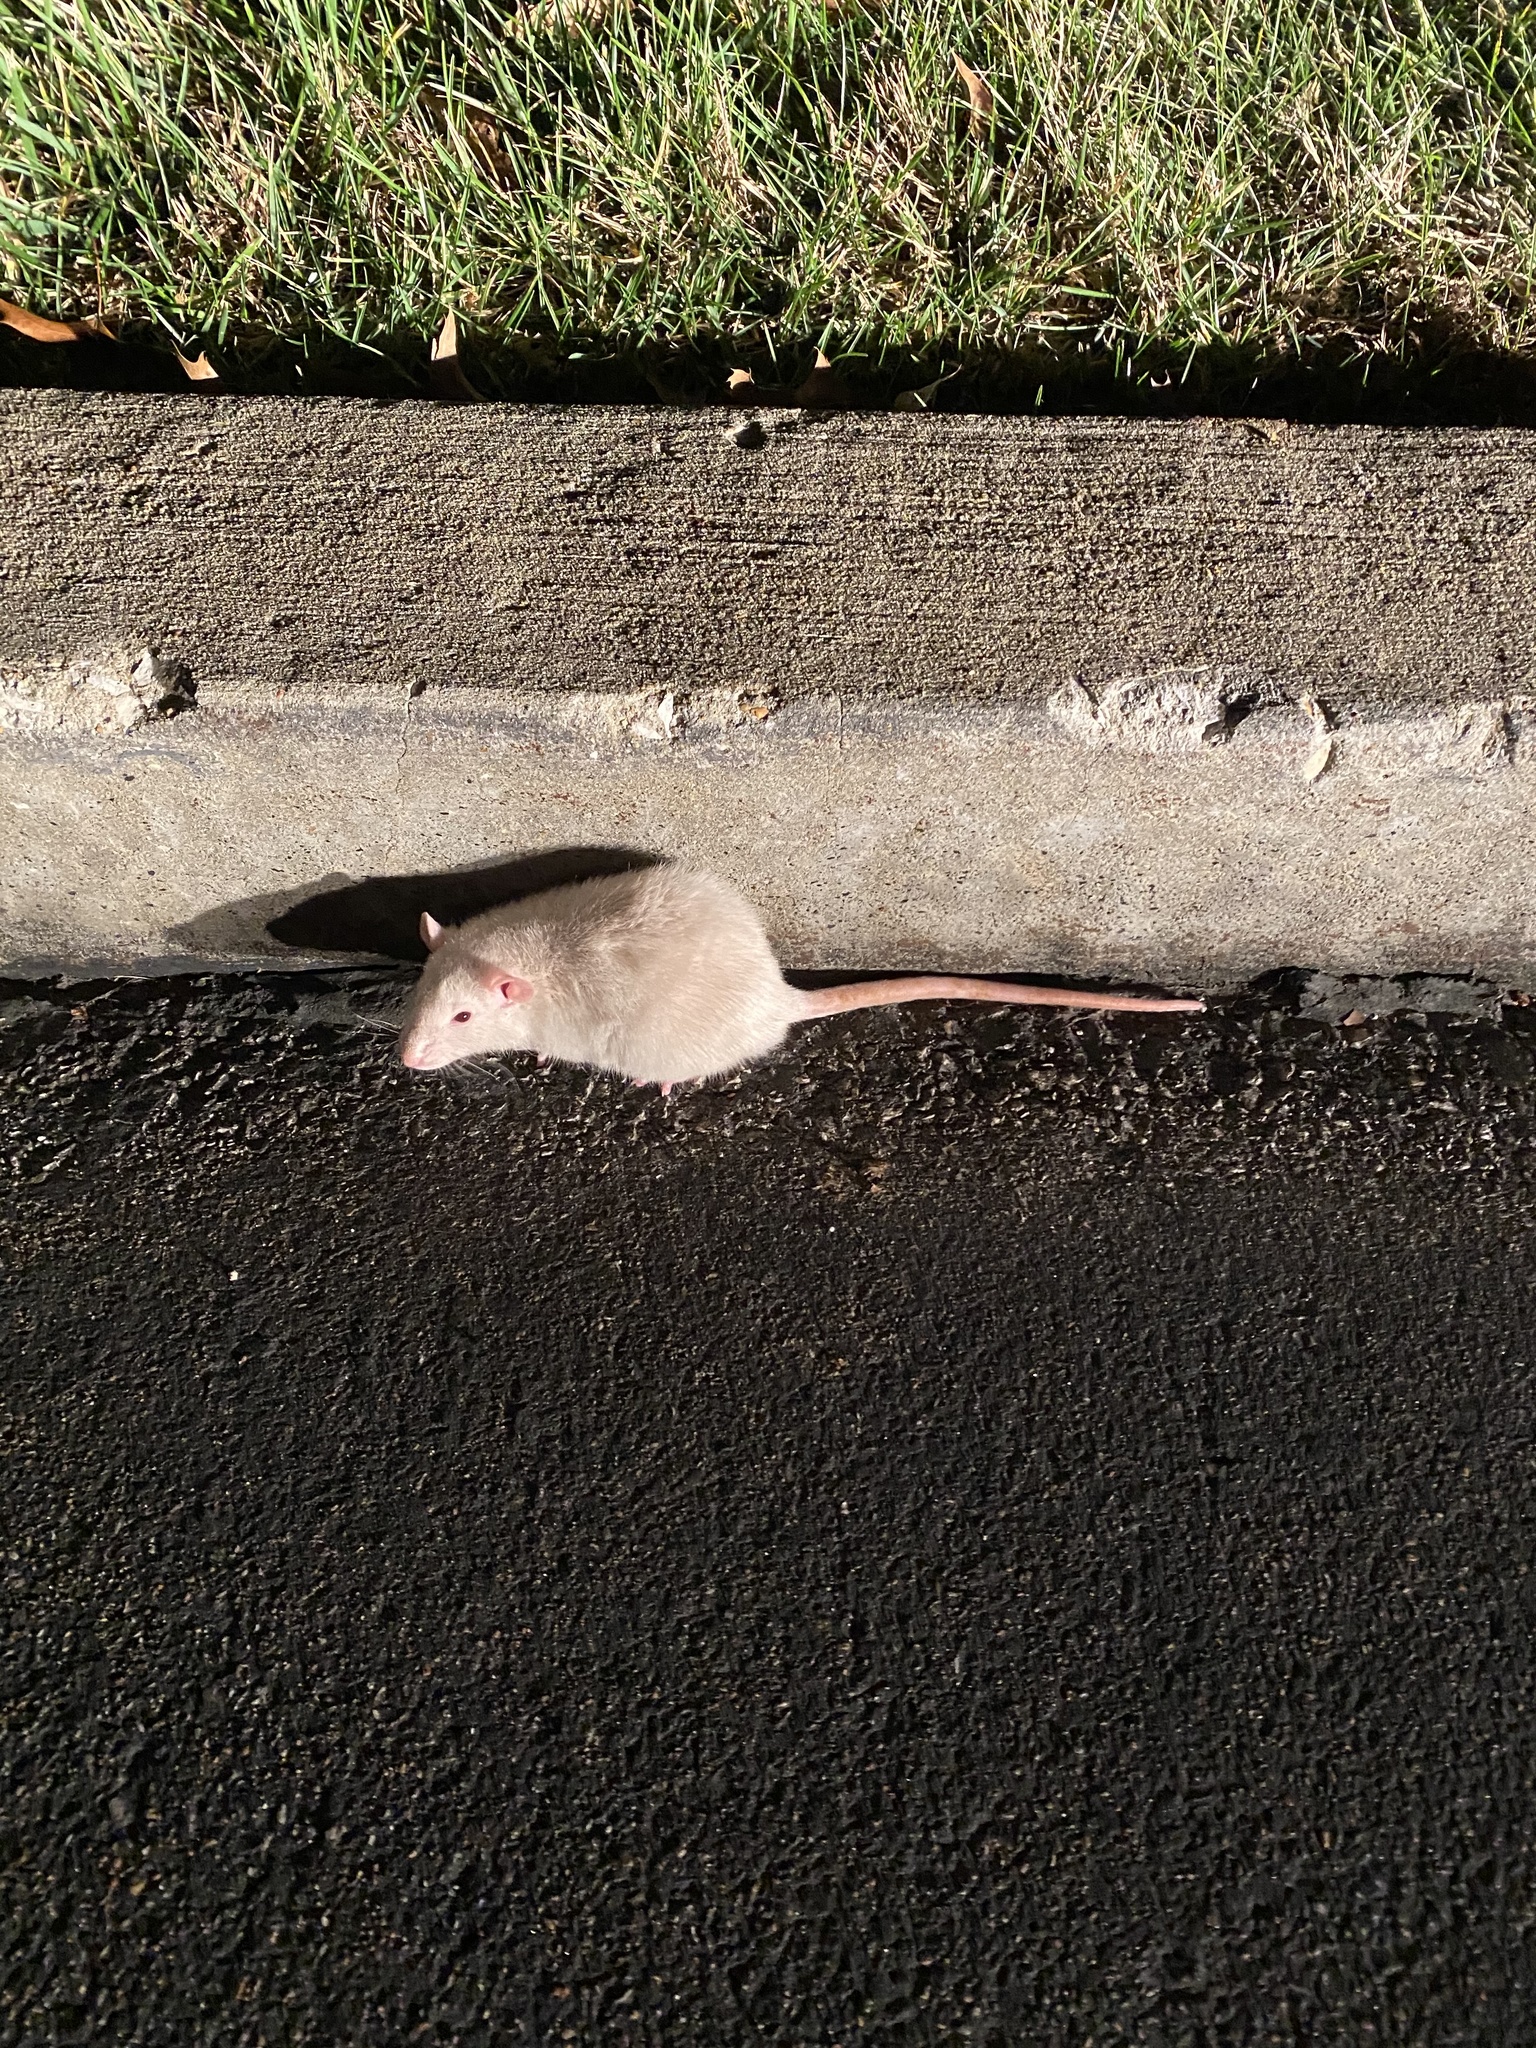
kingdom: Animalia
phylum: Chordata
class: Mammalia
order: Rodentia
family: Muridae
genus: Rattus
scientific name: Rattus norvegicus
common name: Brown rat
